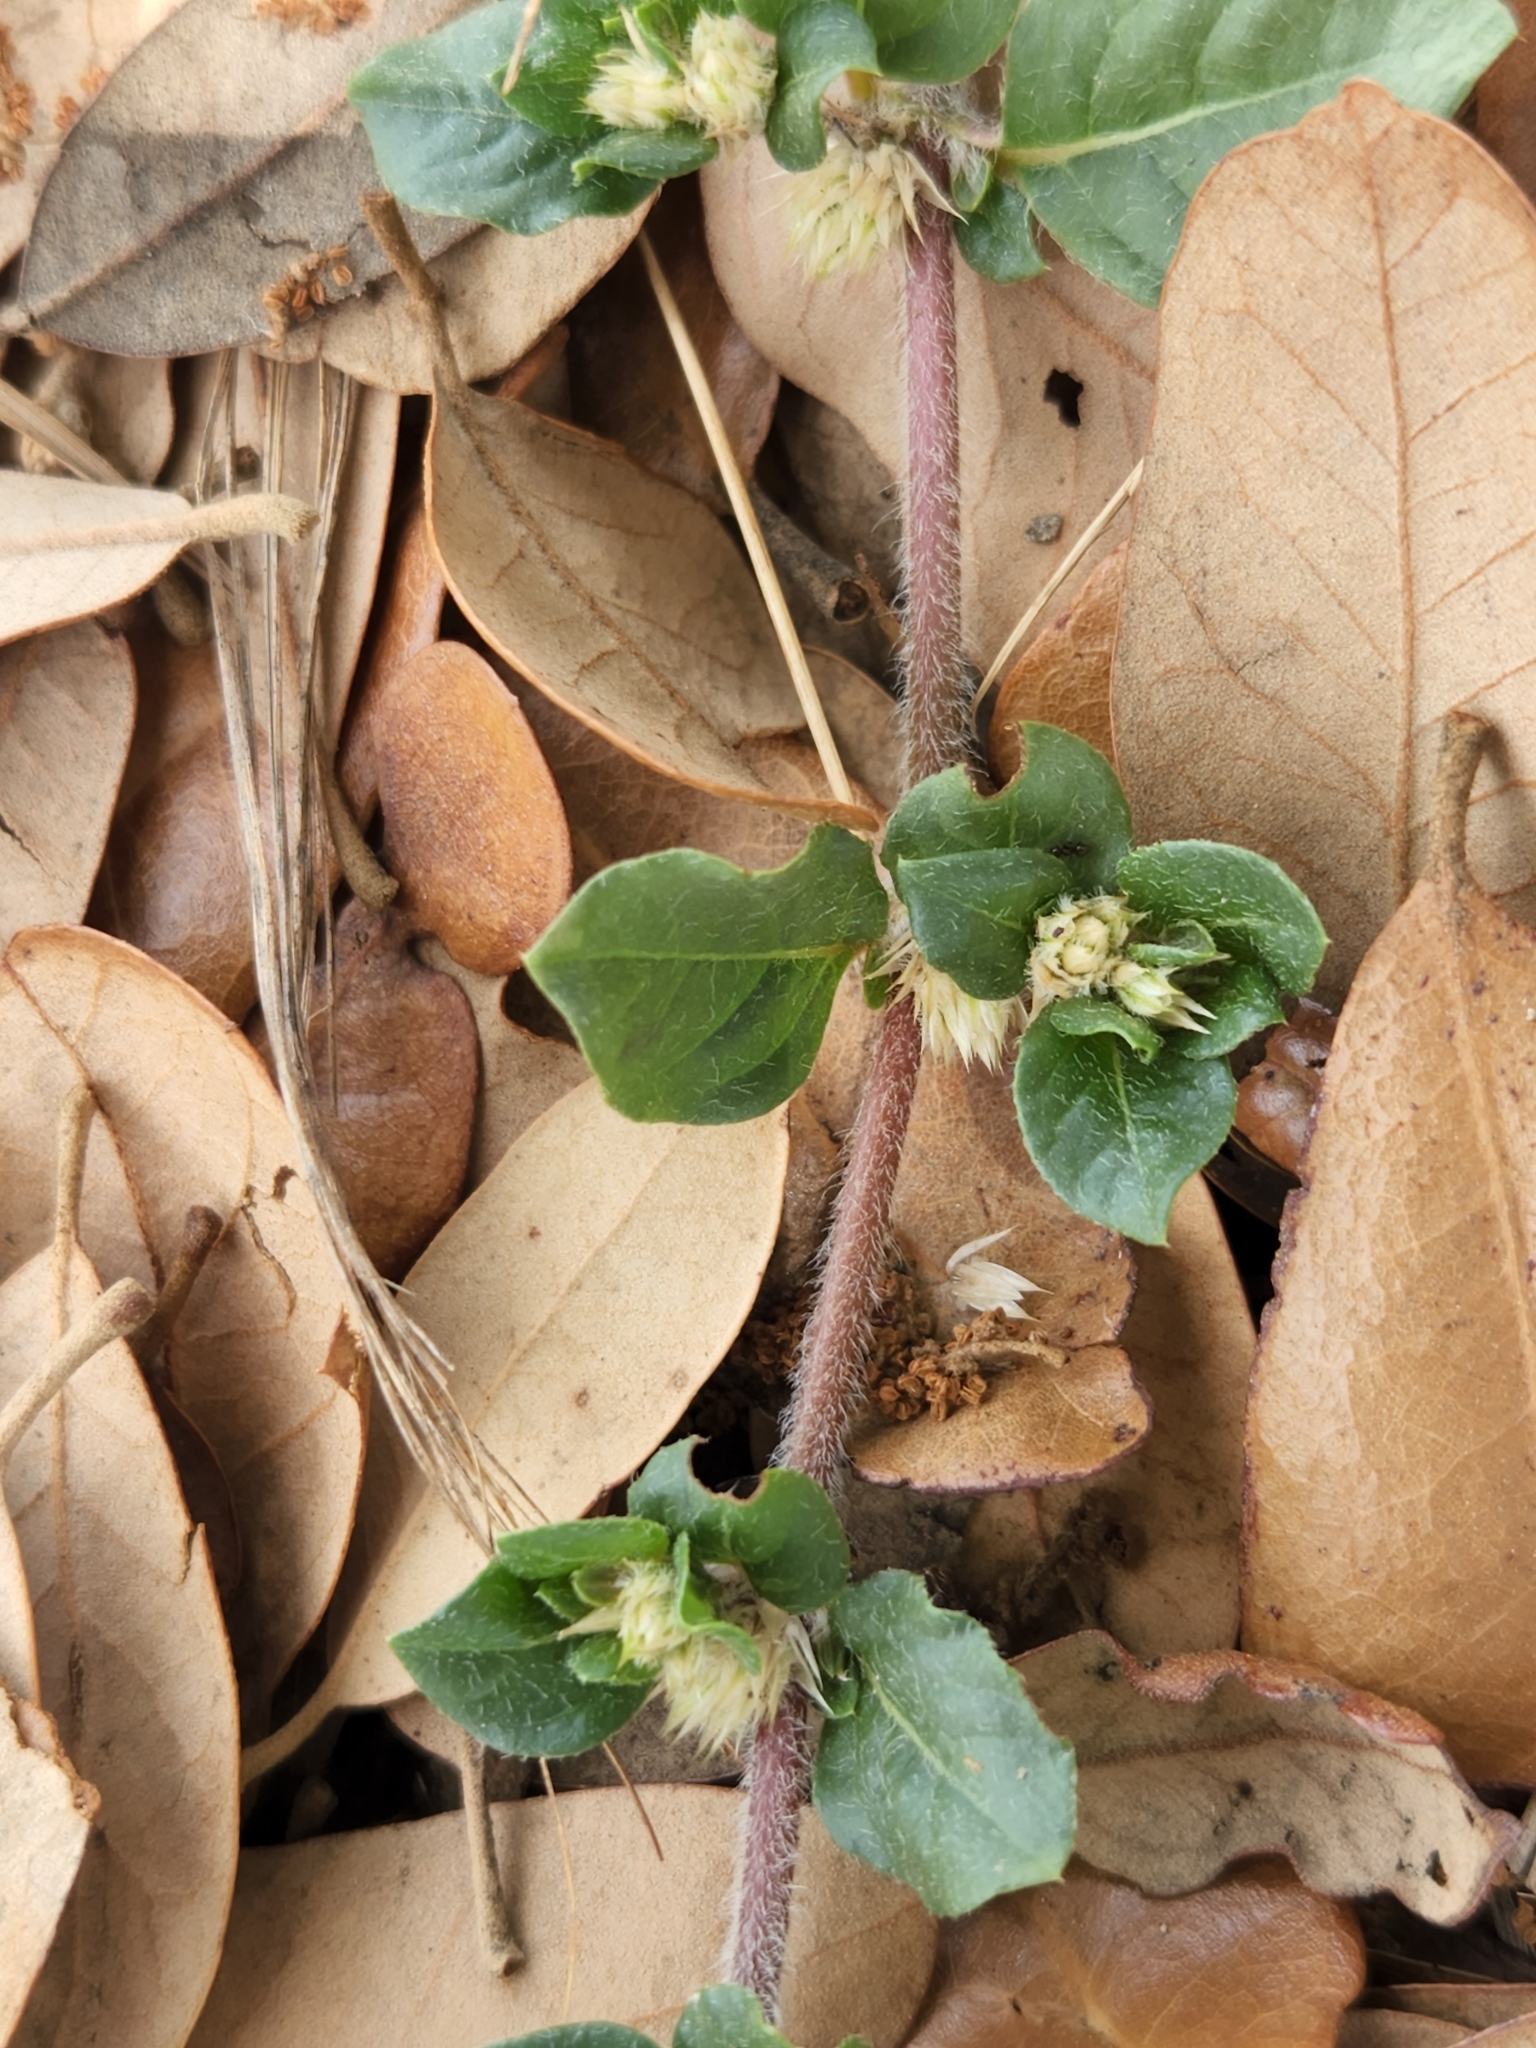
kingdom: Plantae
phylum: Tracheophyta
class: Magnoliopsida
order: Caryophyllales
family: Amaranthaceae
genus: Alternanthera
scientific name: Alternanthera caracasana
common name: Washerwoman
